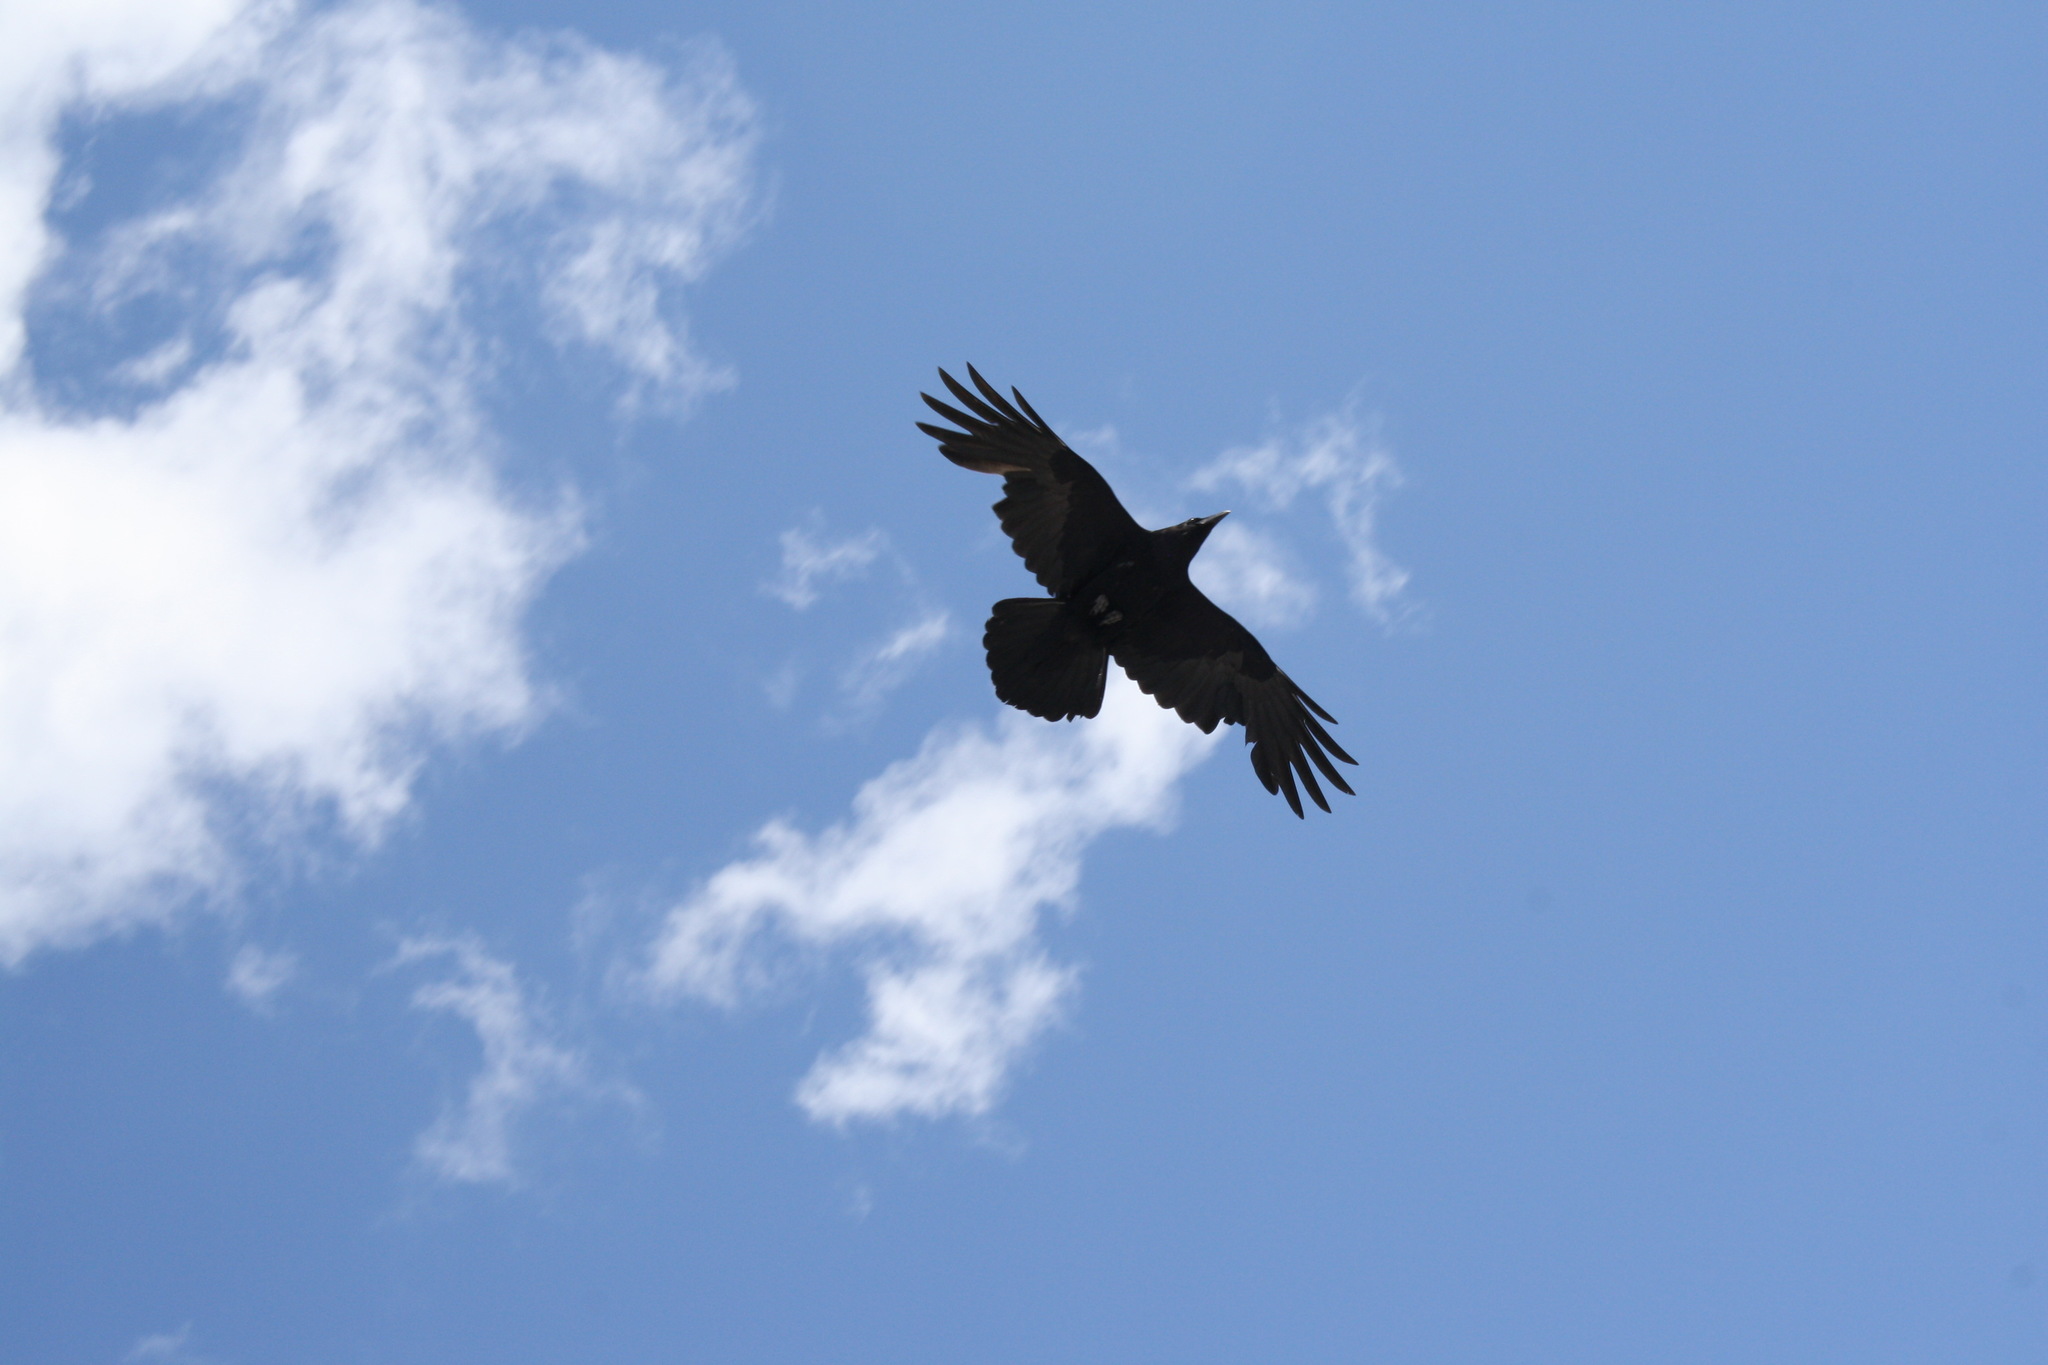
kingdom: Animalia
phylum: Chordata
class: Aves
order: Passeriformes
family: Corvidae
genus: Corvus
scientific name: Corvus corax
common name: Common raven
